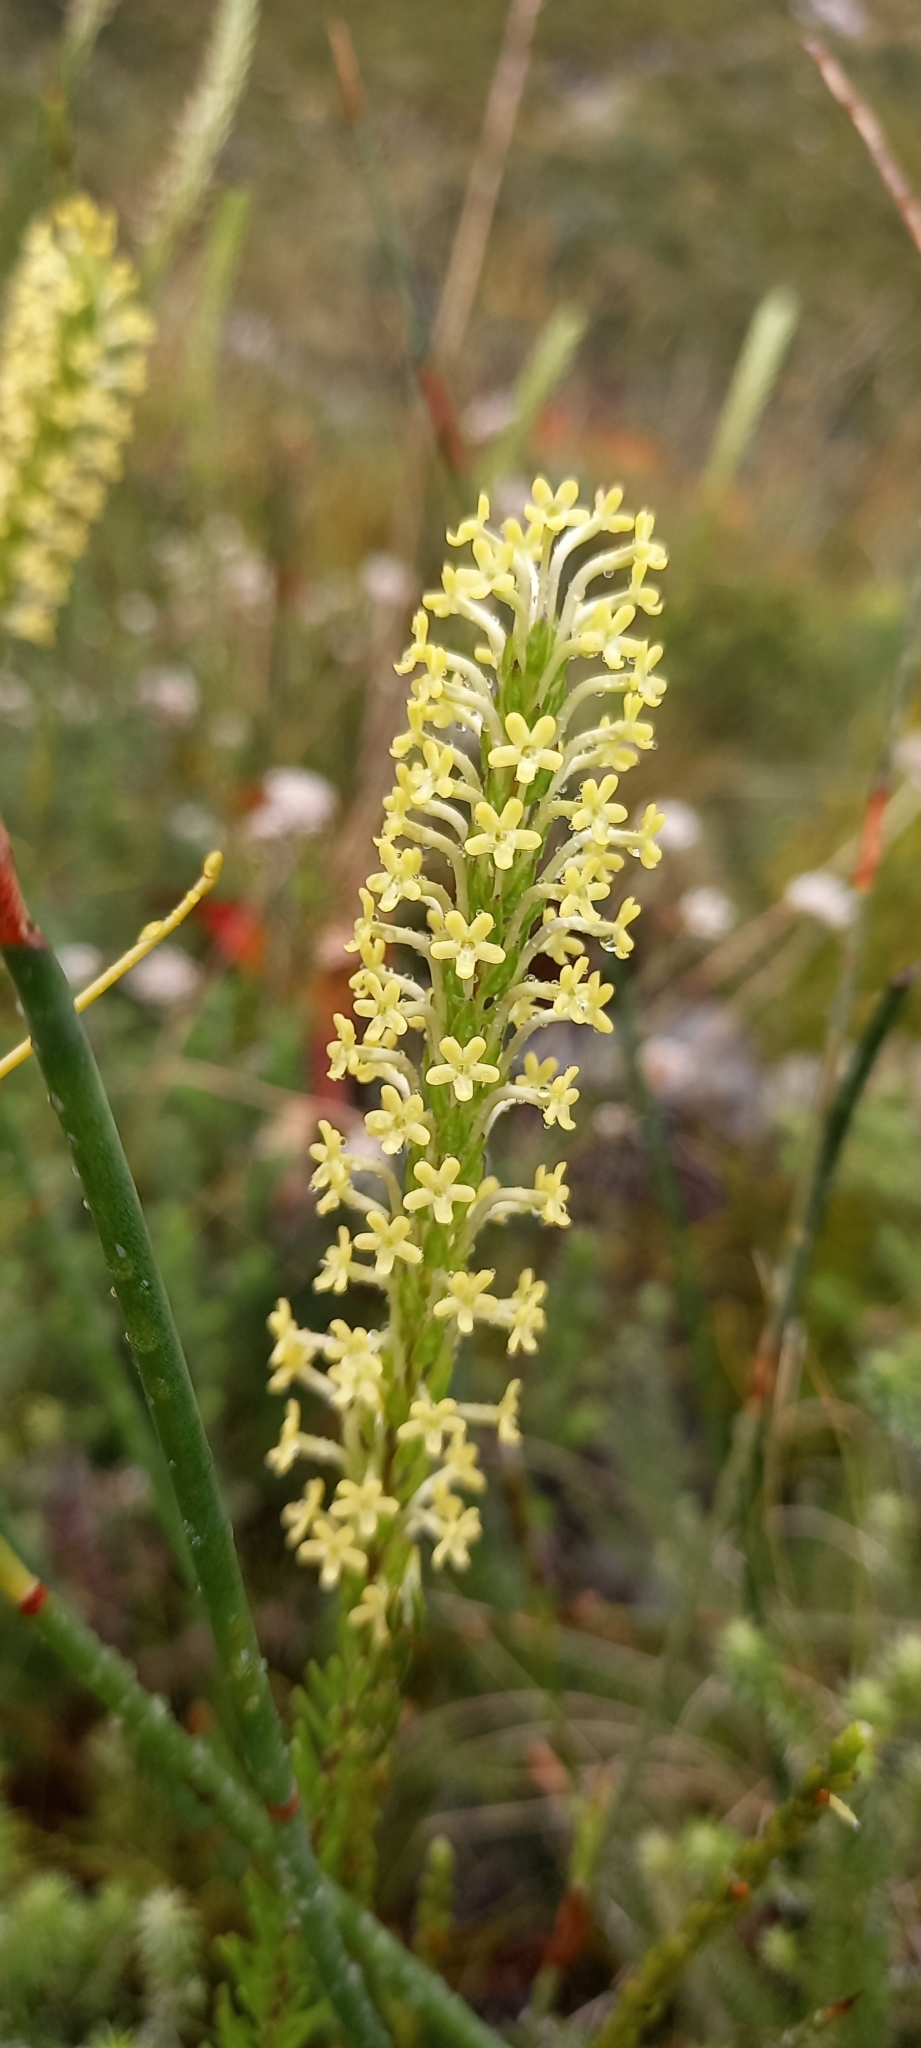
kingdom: Plantae
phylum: Tracheophyta
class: Magnoliopsida
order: Lamiales
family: Scrophulariaceae
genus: Microdon
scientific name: Microdon dubius
